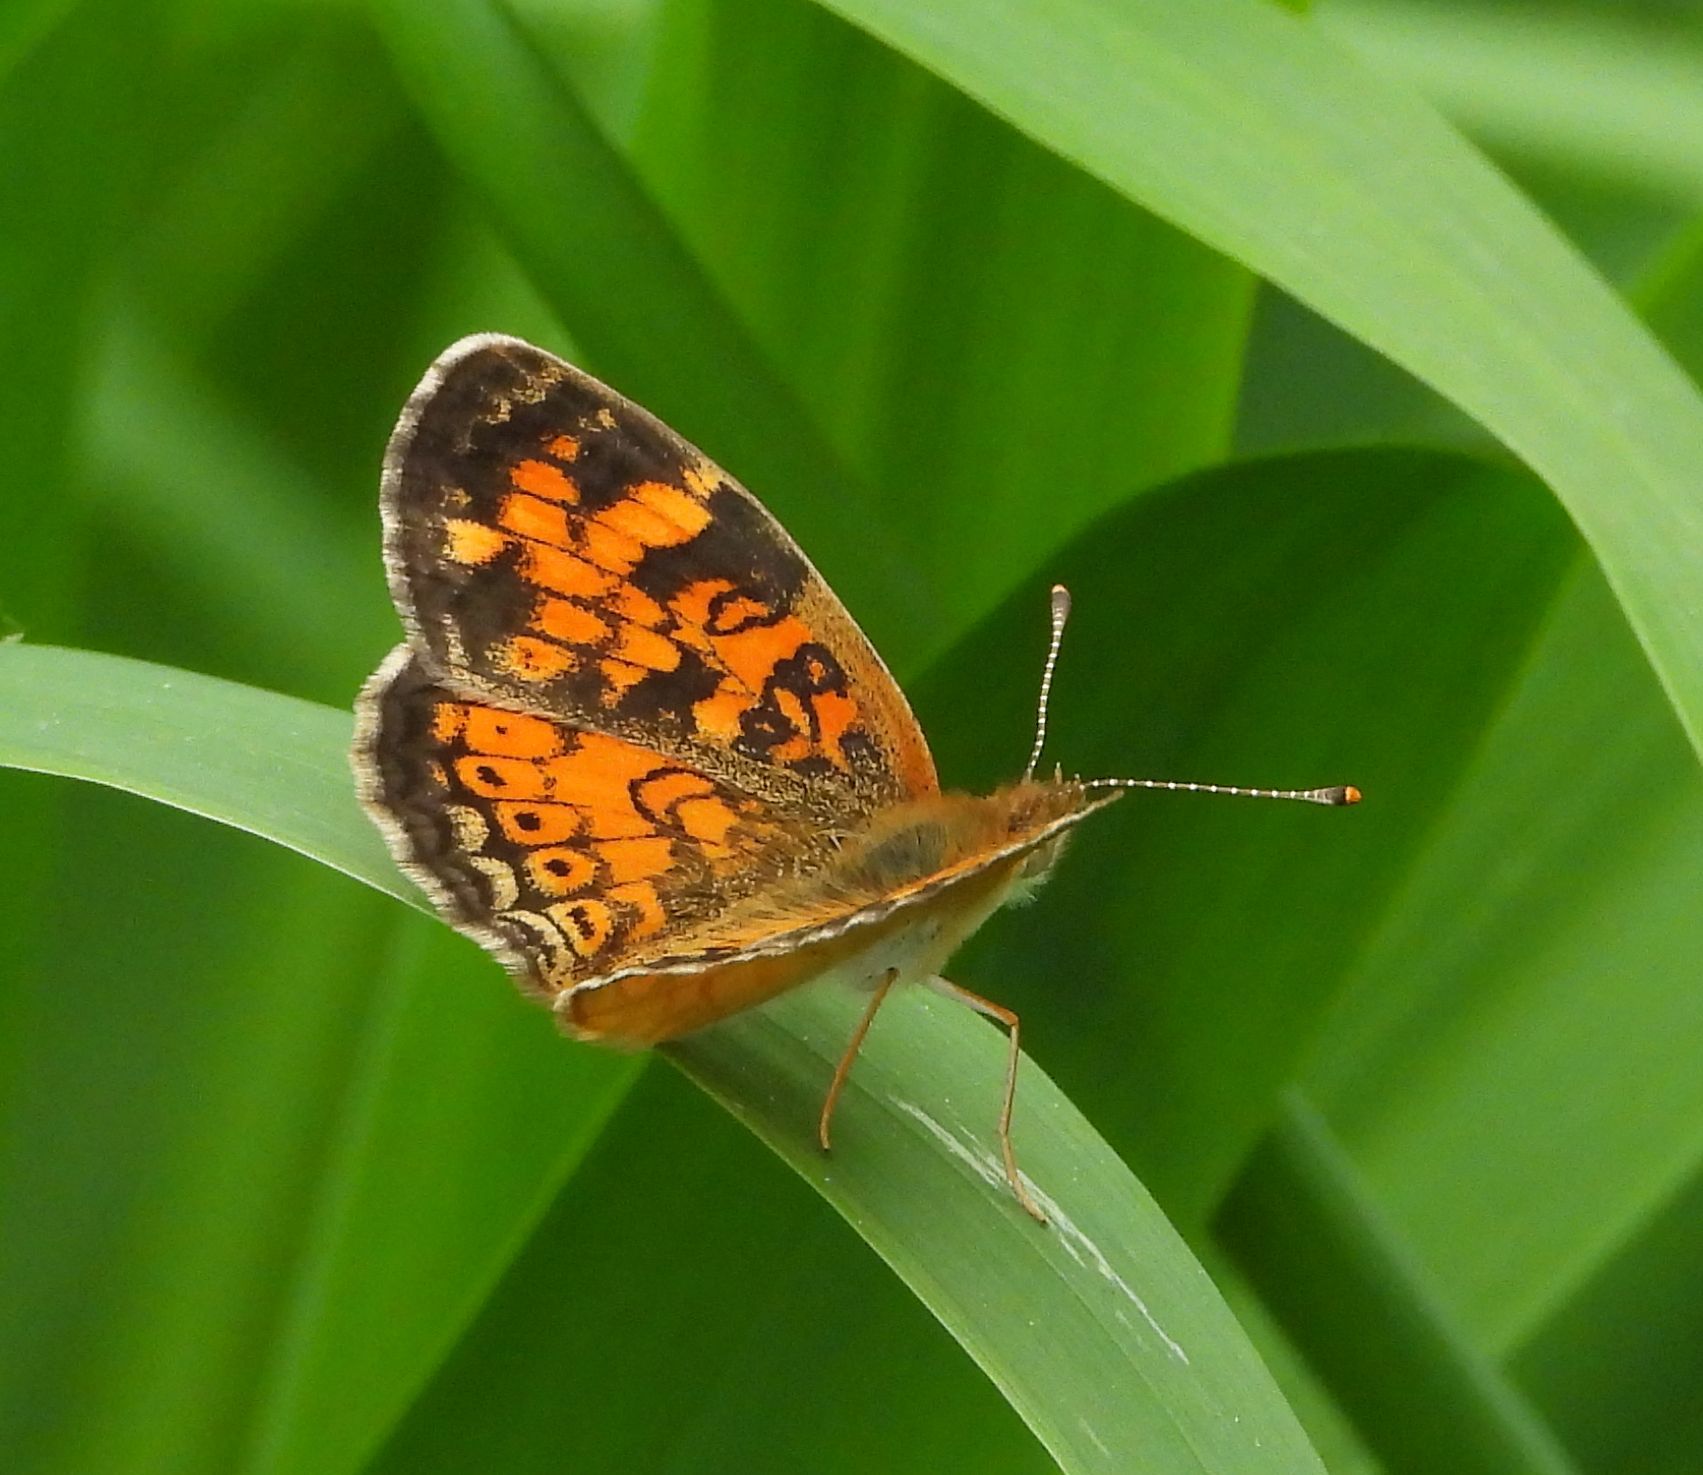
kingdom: Animalia
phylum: Arthropoda
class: Insecta
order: Lepidoptera
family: Nymphalidae
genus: Phyciodes
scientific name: Phyciodes tharos
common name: Pearl crescent
